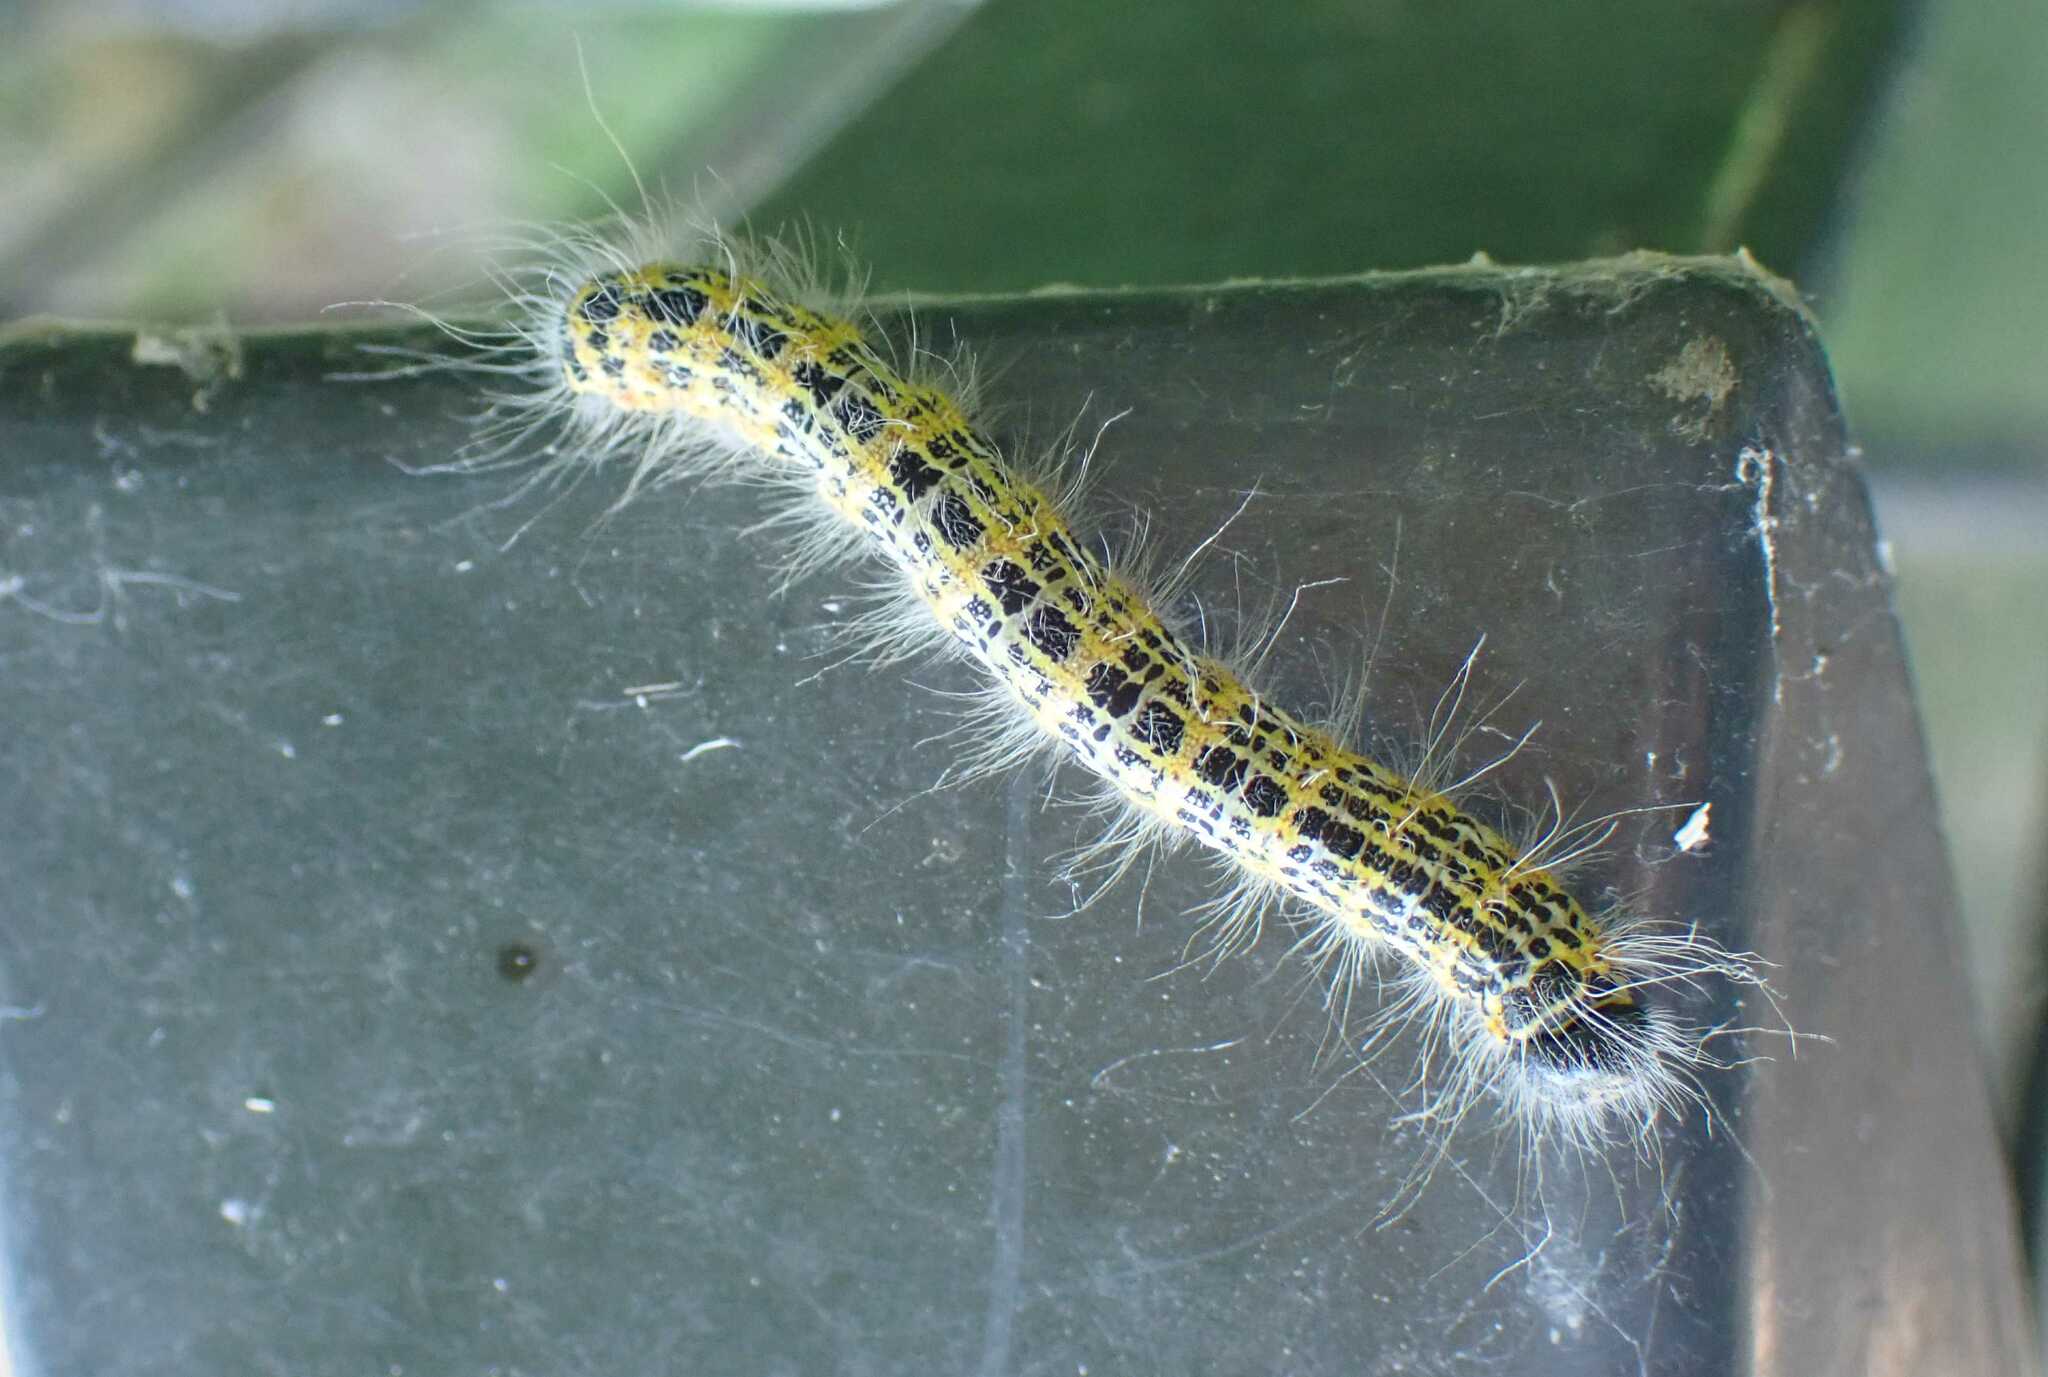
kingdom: Animalia
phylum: Arthropoda
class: Insecta
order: Lepidoptera
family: Notodontidae
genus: Phalera
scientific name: Phalera bucephala
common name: Buff-tip
